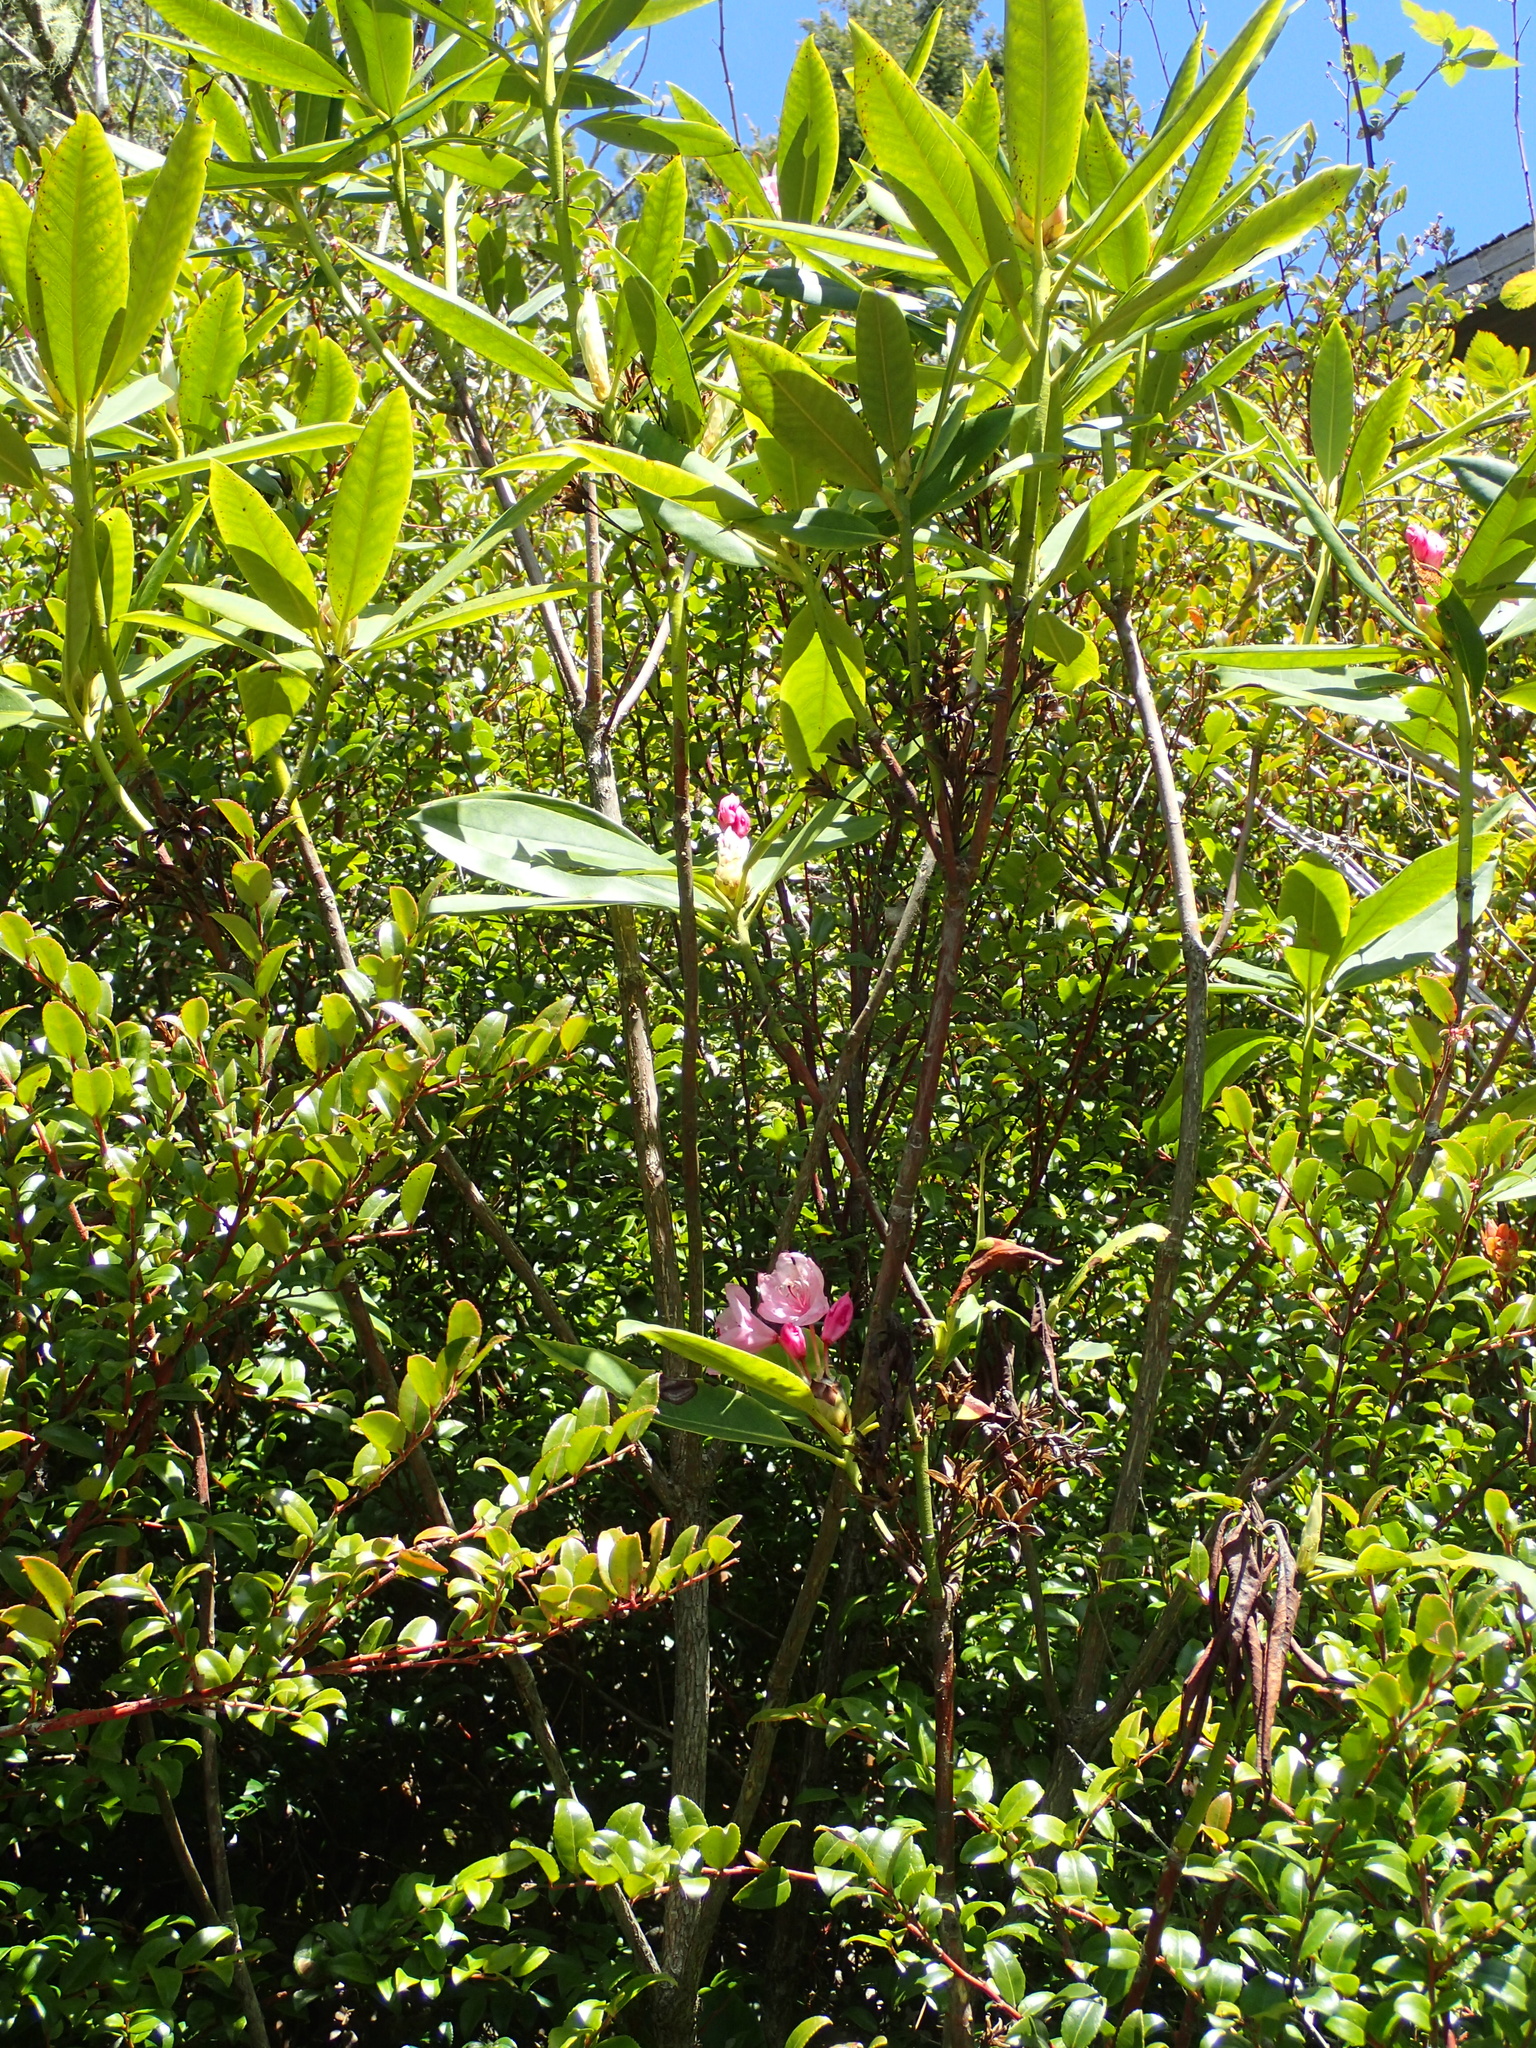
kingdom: Plantae
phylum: Tracheophyta
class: Magnoliopsida
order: Ericales
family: Ericaceae
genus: Rhododendron
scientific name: Rhododendron macrophyllum
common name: California rose bay
